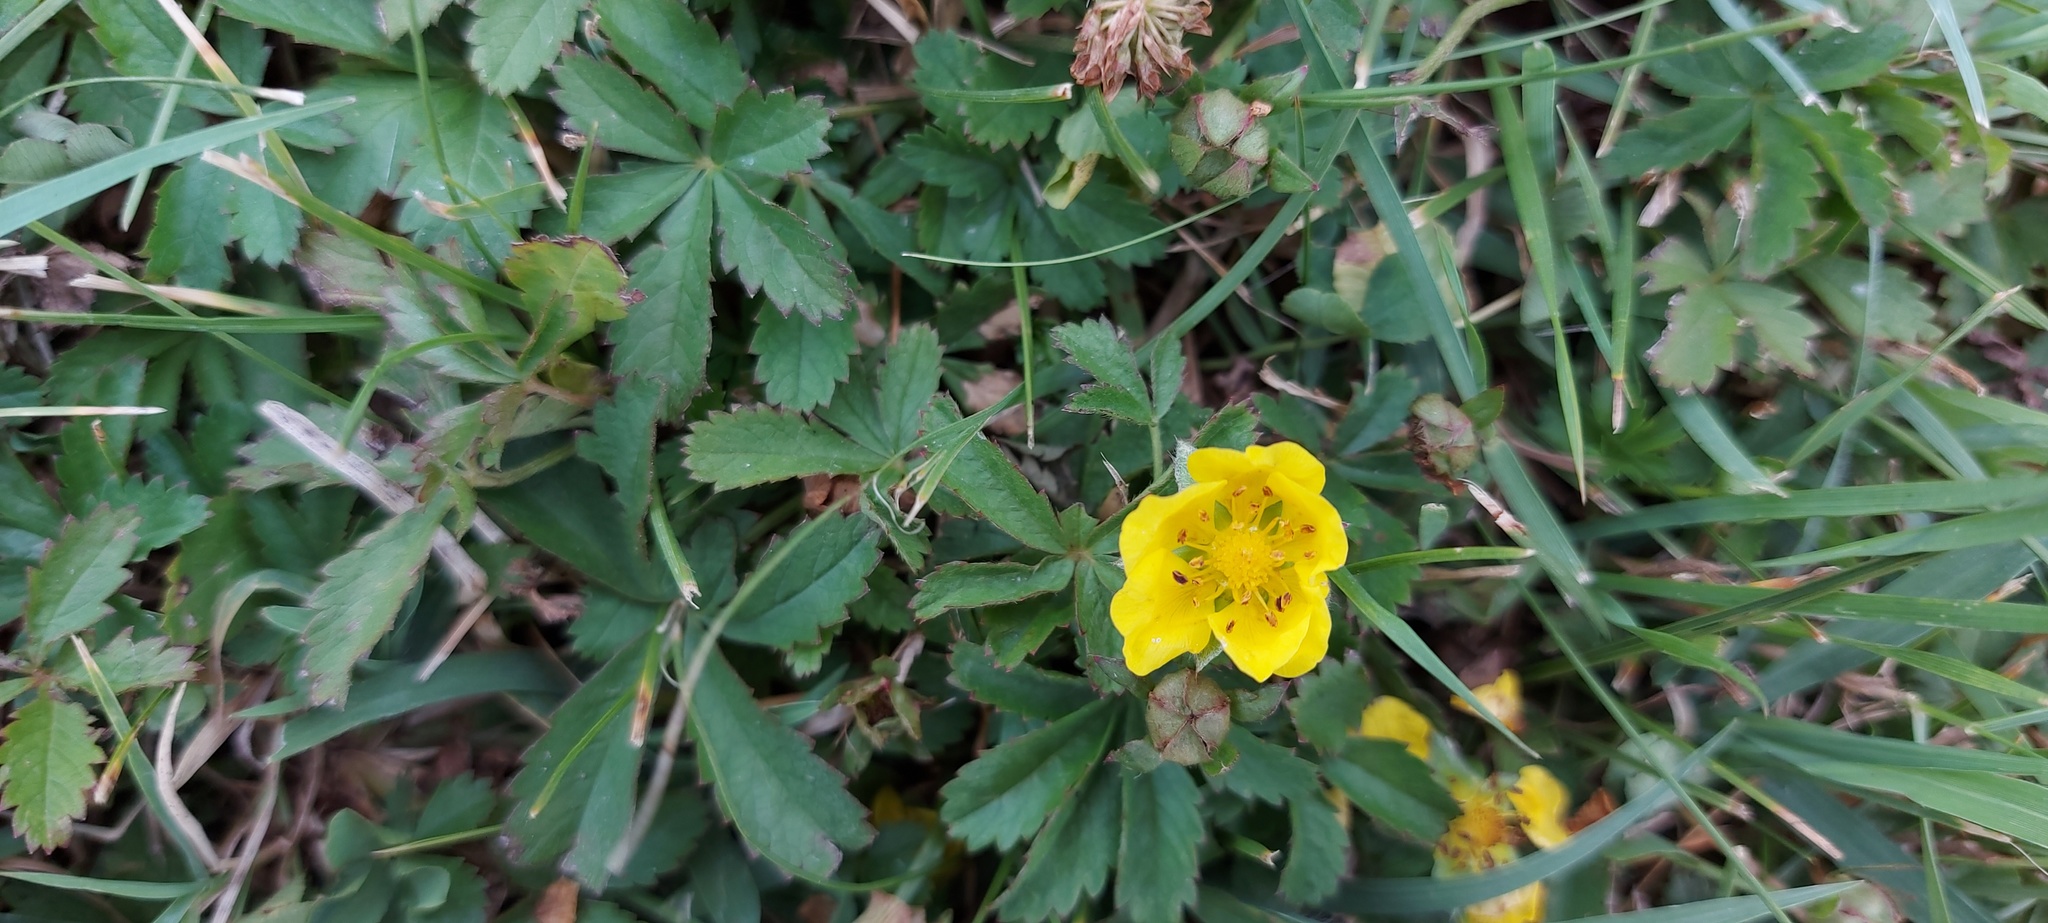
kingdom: Plantae
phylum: Tracheophyta
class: Magnoliopsida
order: Rosales
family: Rosaceae
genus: Potentilla
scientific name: Potentilla reptans
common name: Creeping cinquefoil
